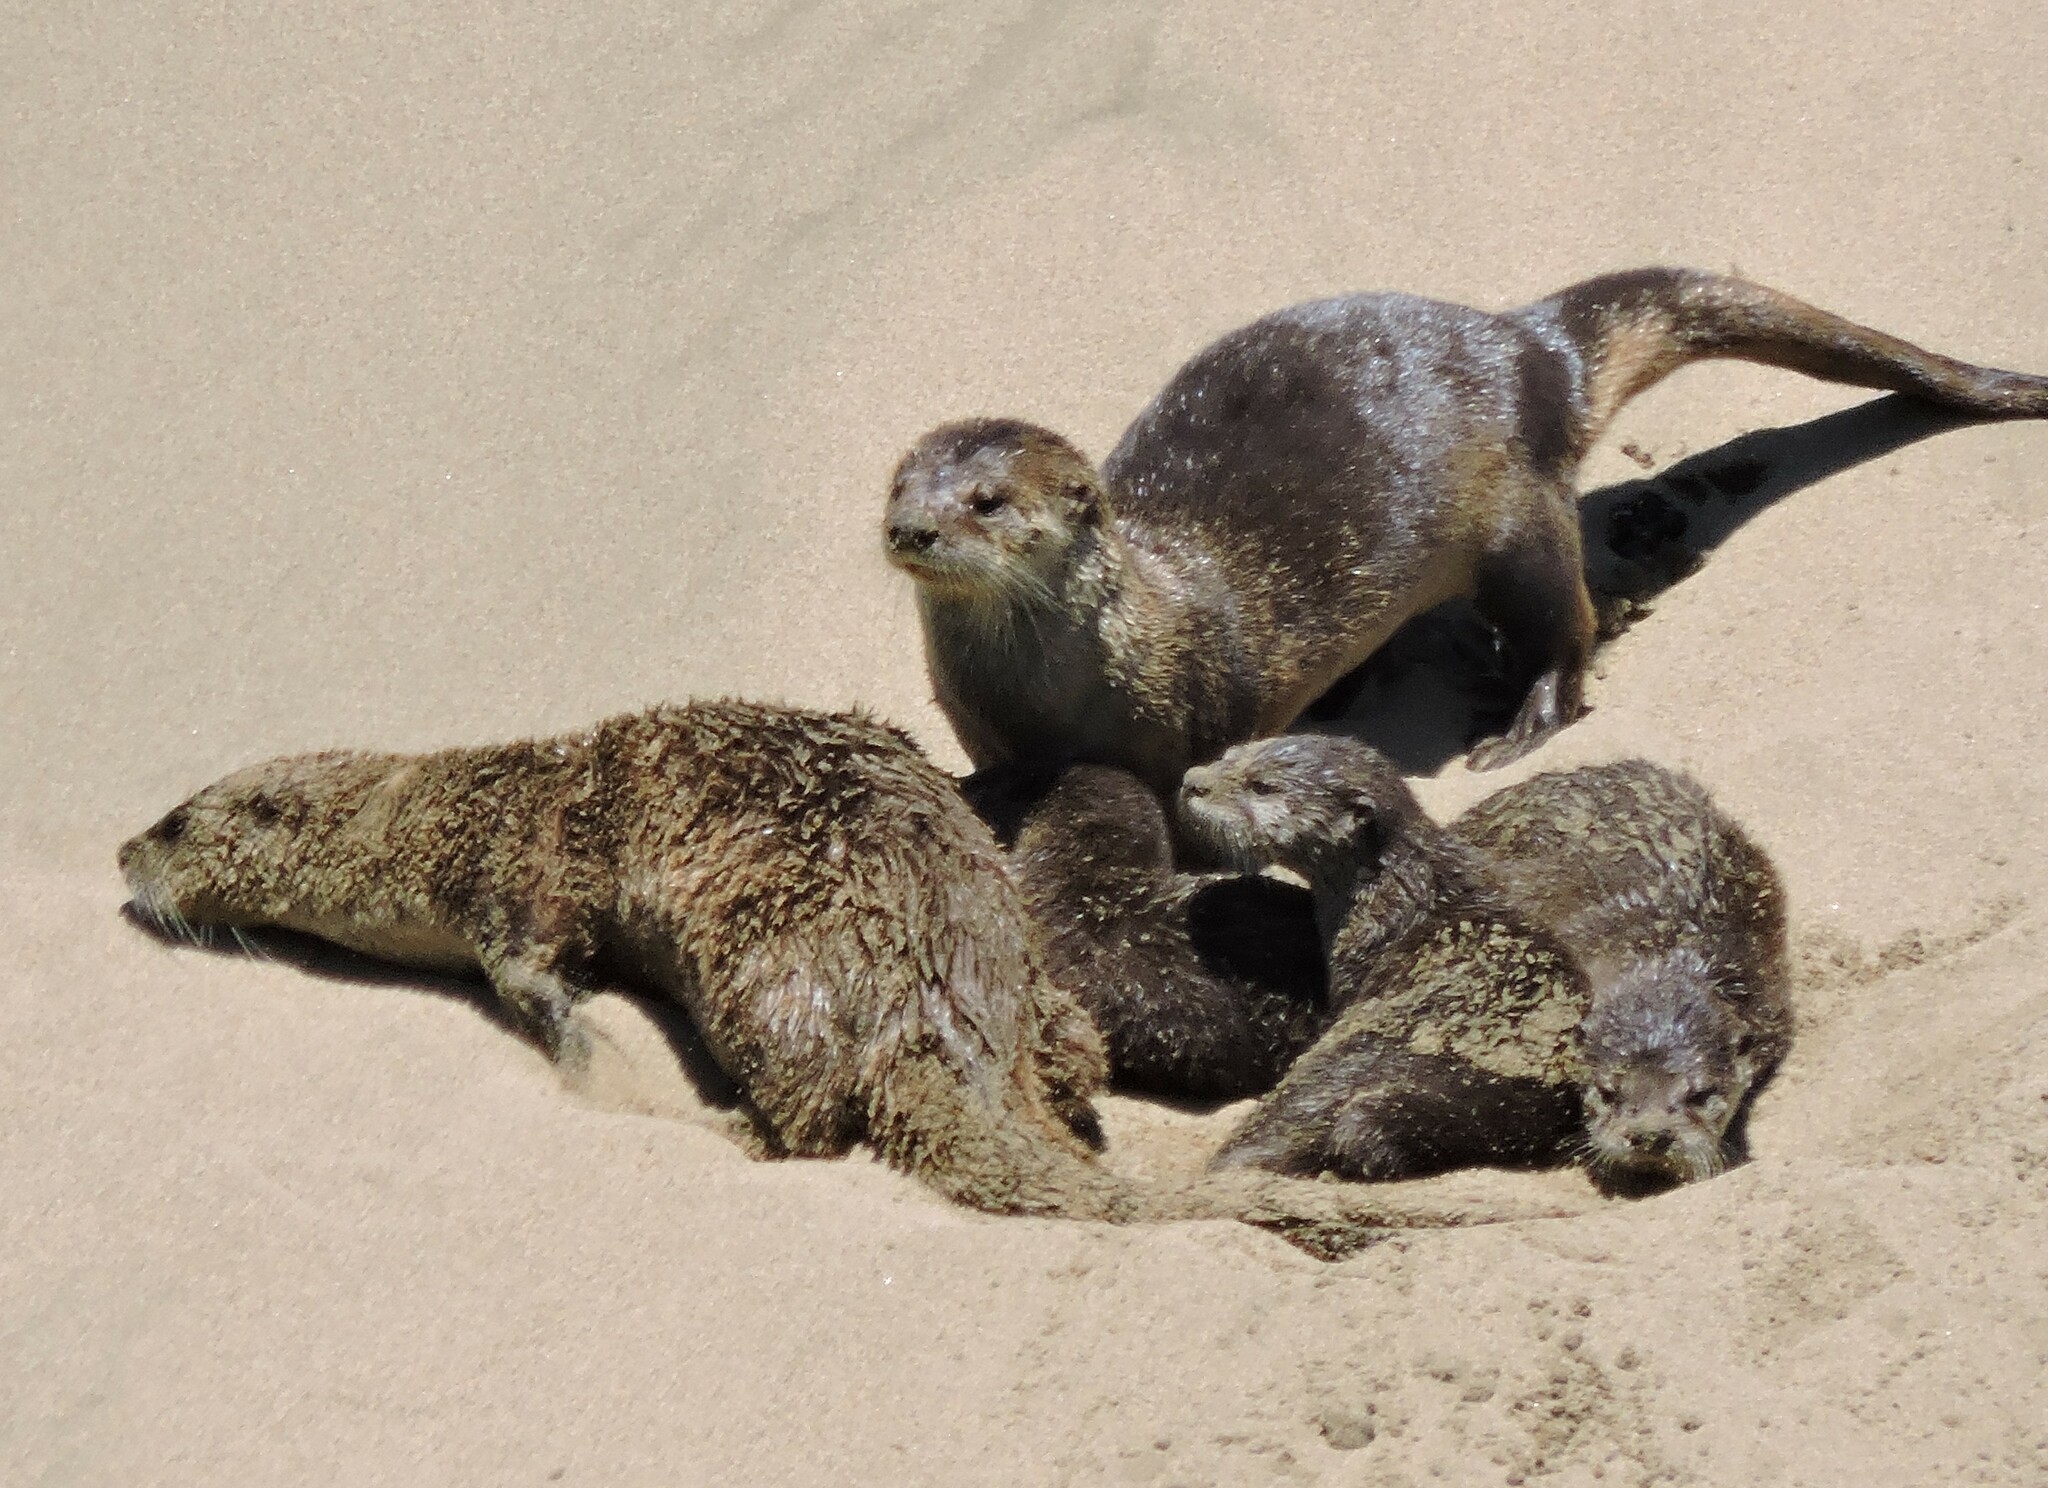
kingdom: Animalia
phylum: Chordata
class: Mammalia
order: Carnivora
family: Mustelidae
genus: Lontra
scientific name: Lontra canadensis
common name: North american river otter
